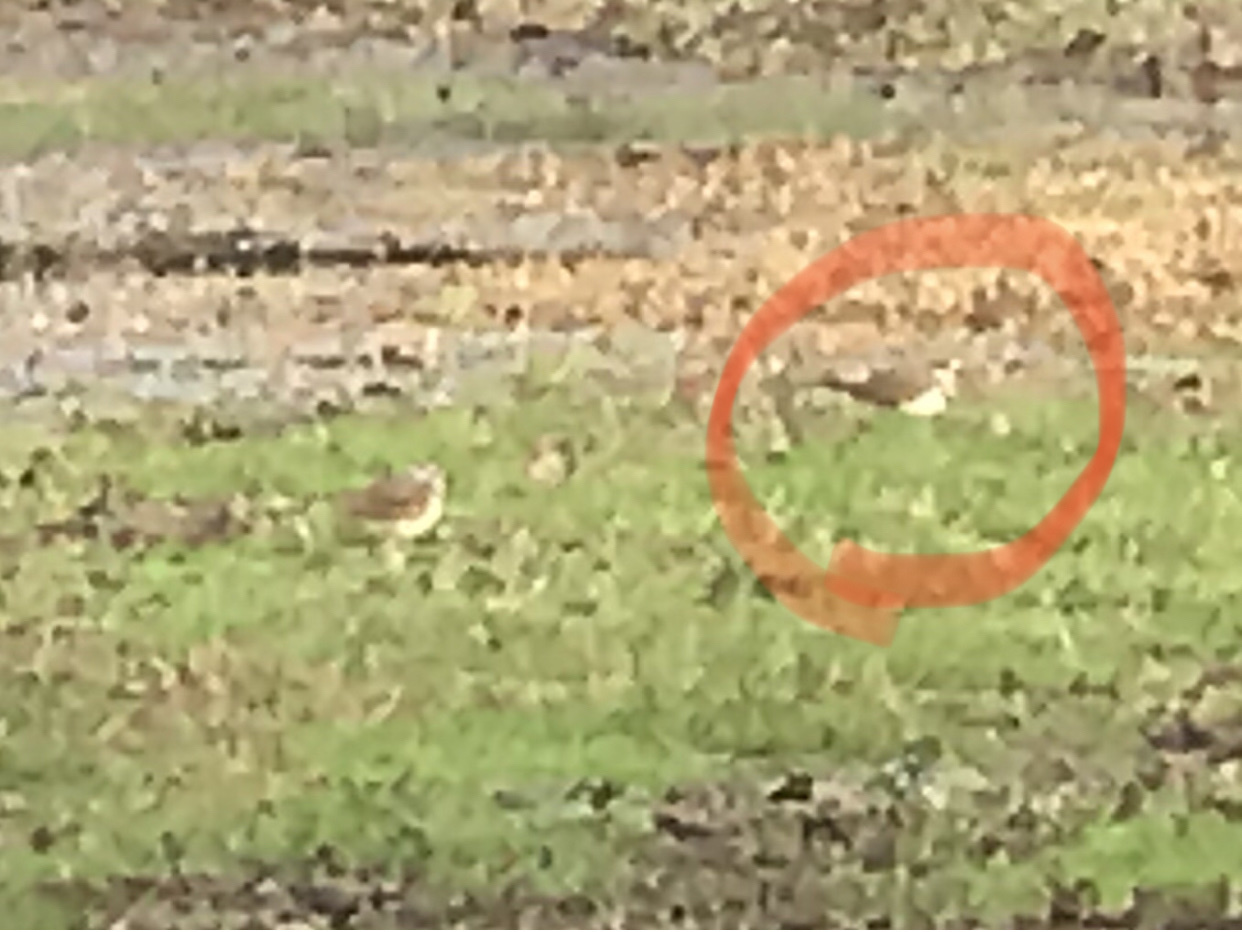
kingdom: Animalia
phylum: Chordata
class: Aves
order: Charadriiformes
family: Charadriidae
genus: Charadrius
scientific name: Charadrius vociferus
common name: Killdeer
